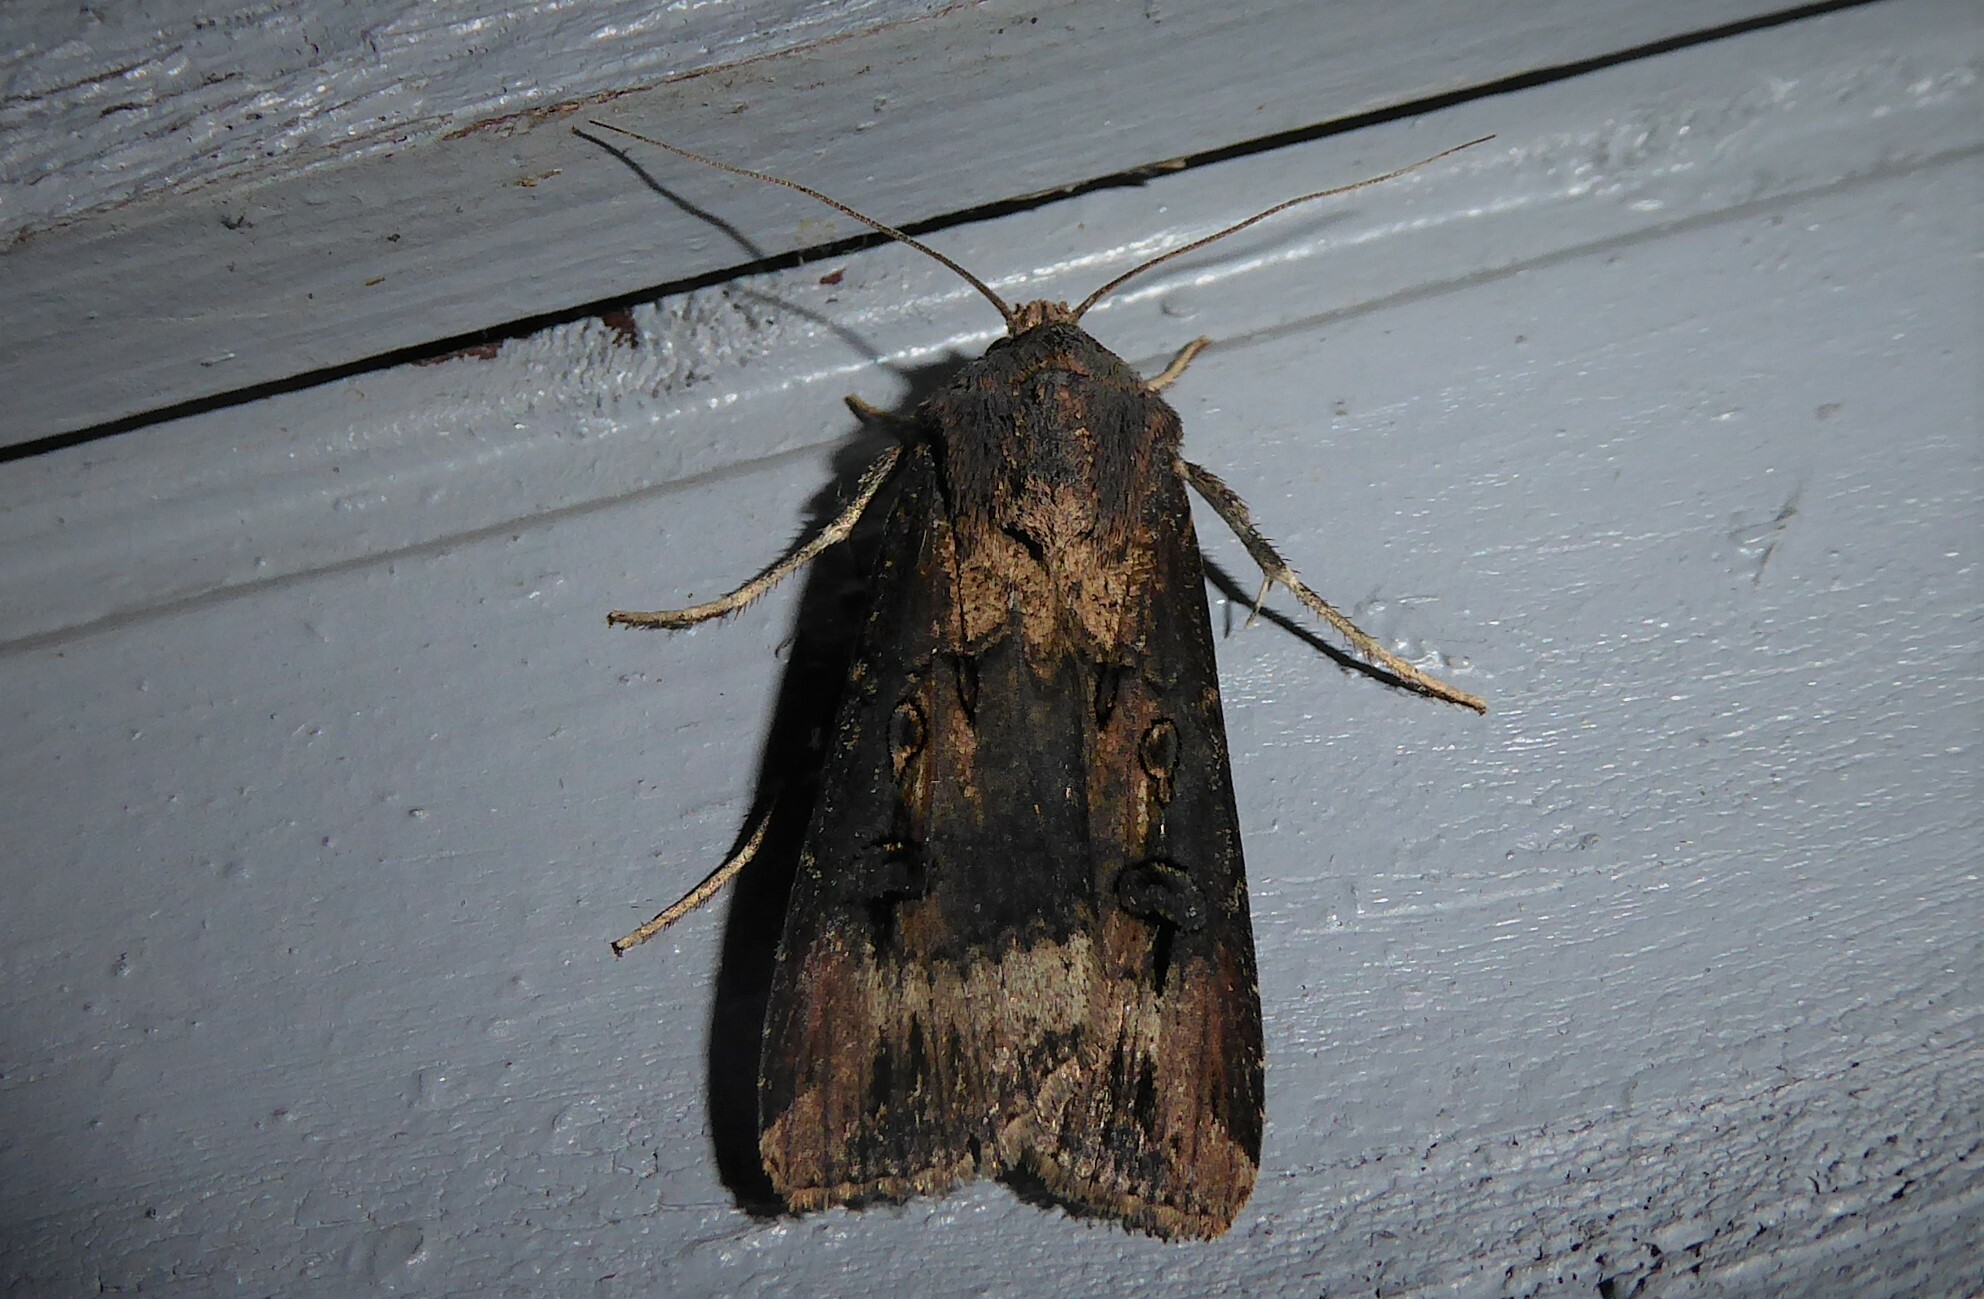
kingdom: Animalia
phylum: Arthropoda
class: Insecta
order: Lepidoptera
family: Noctuidae
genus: Agrotis
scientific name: Agrotis ipsilon
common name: Dark sword-grass
